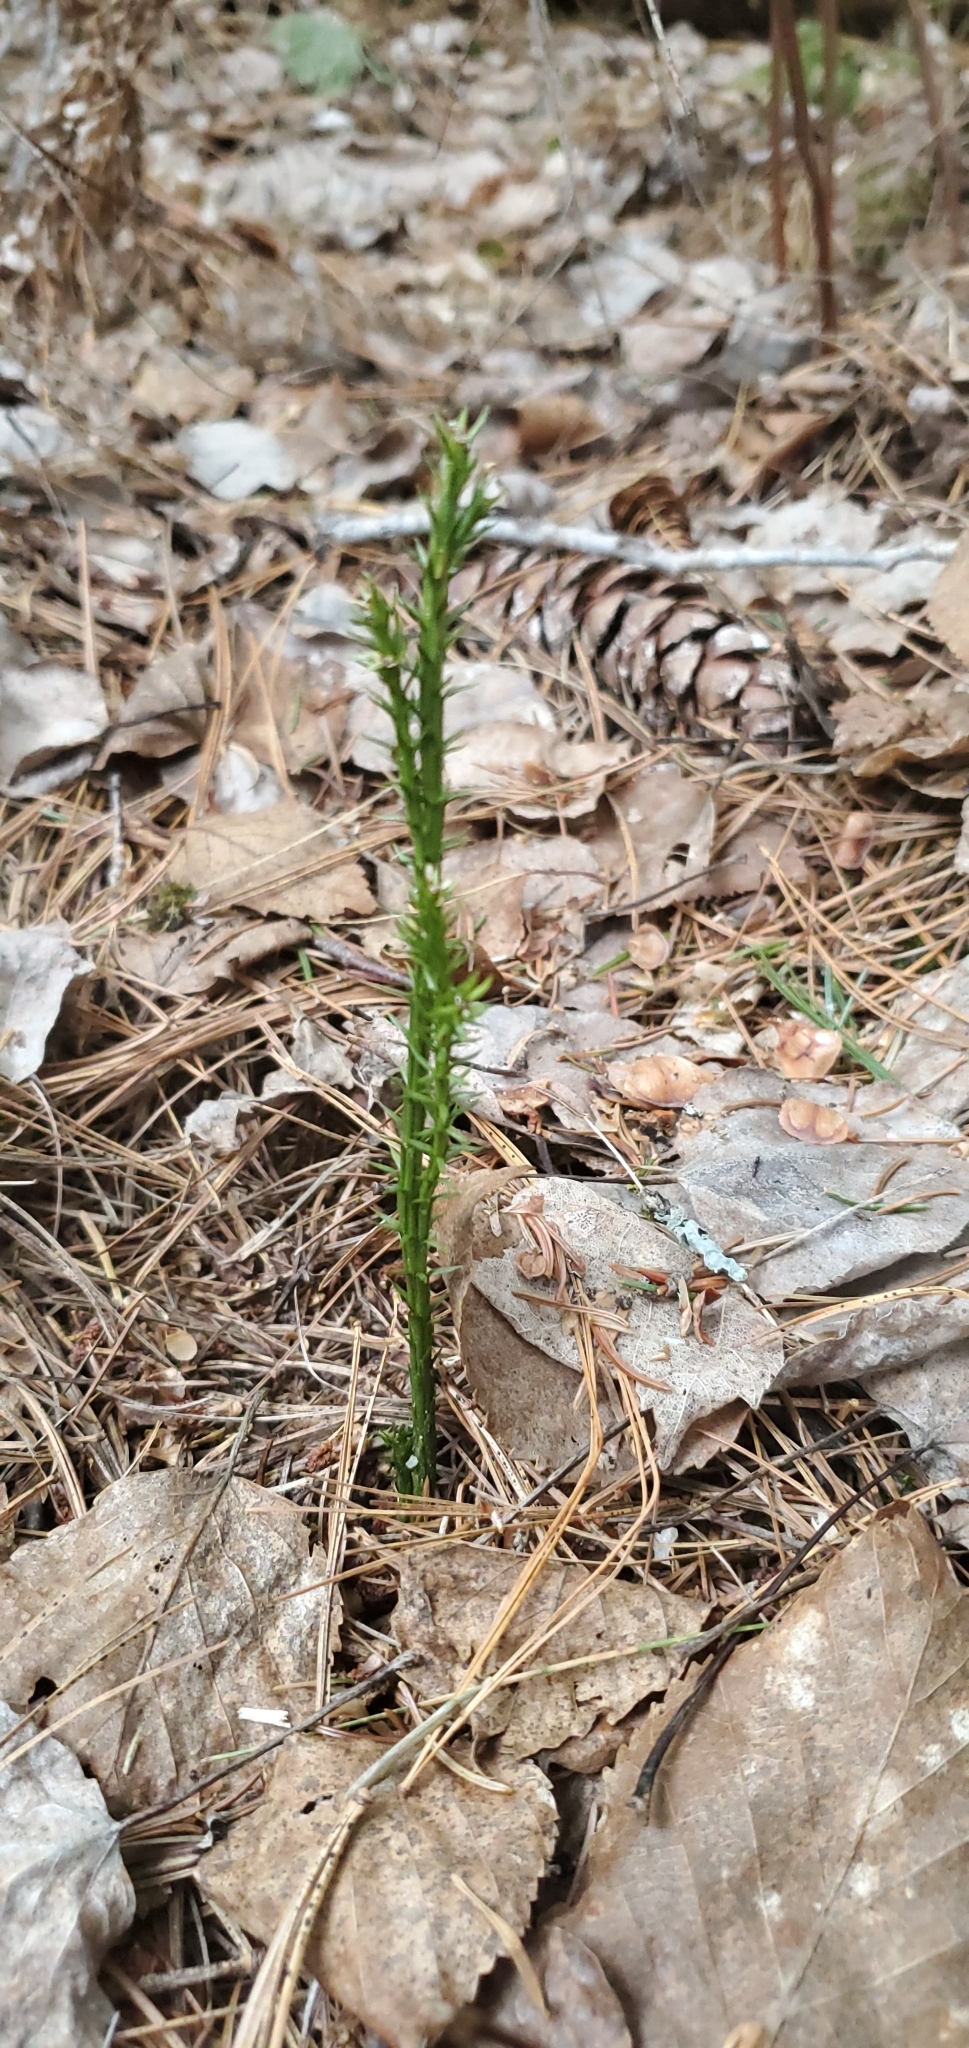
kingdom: Plantae
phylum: Tracheophyta
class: Lycopodiopsida
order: Lycopodiales
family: Lycopodiaceae
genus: Dendrolycopodium
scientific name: Dendrolycopodium dendroideum
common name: Northern tree-clubmoss
